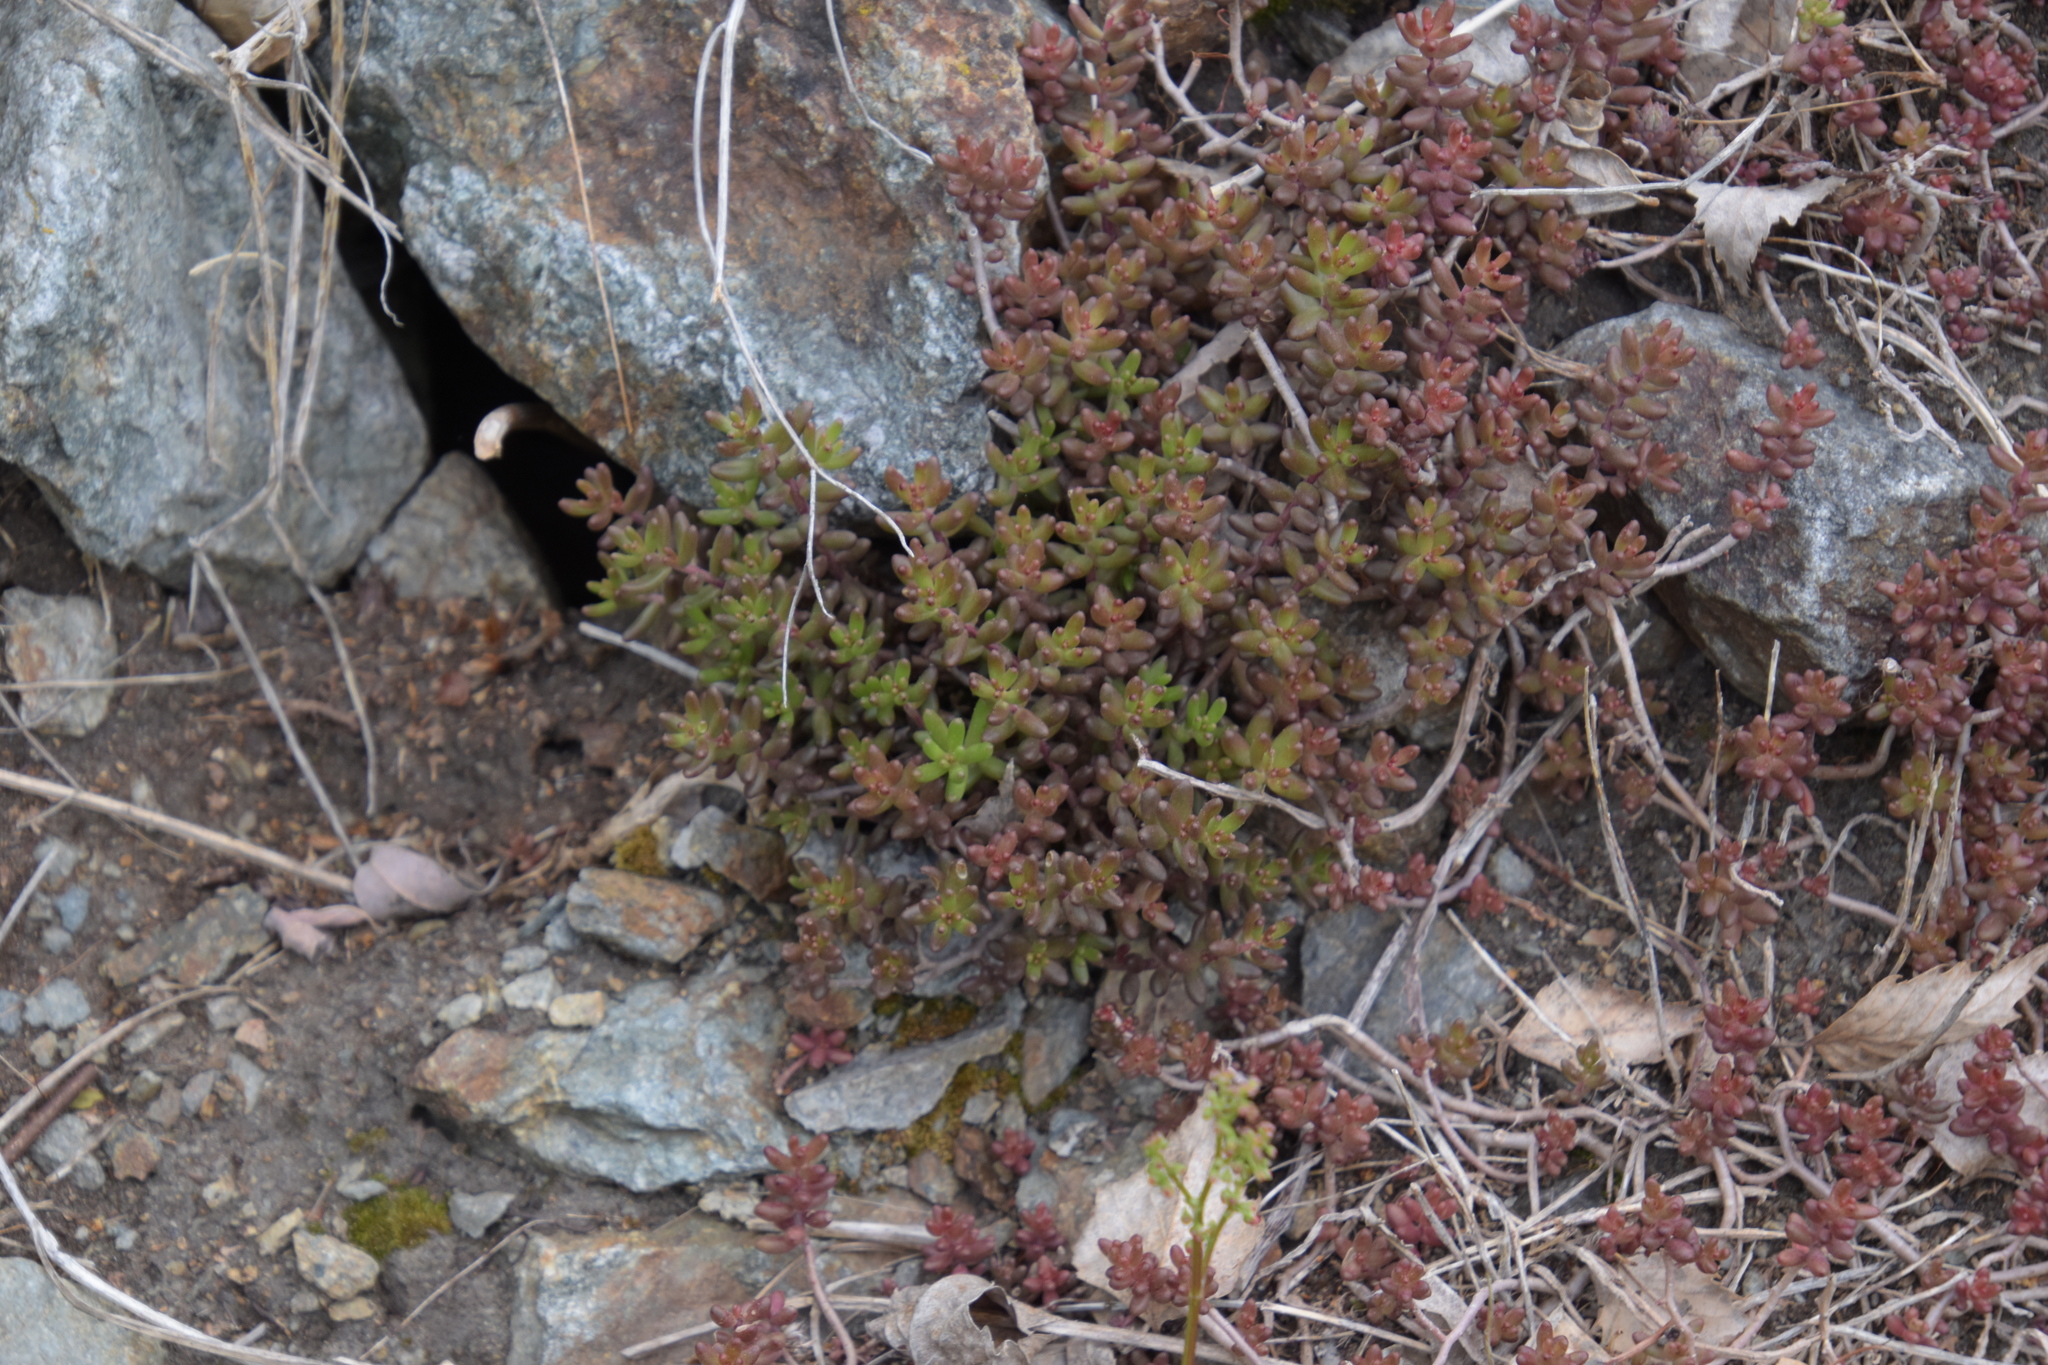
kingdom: Plantae
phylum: Tracheophyta
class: Magnoliopsida
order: Saxifragales
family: Crassulaceae
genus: Sedum
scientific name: Sedum album
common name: White stonecrop
